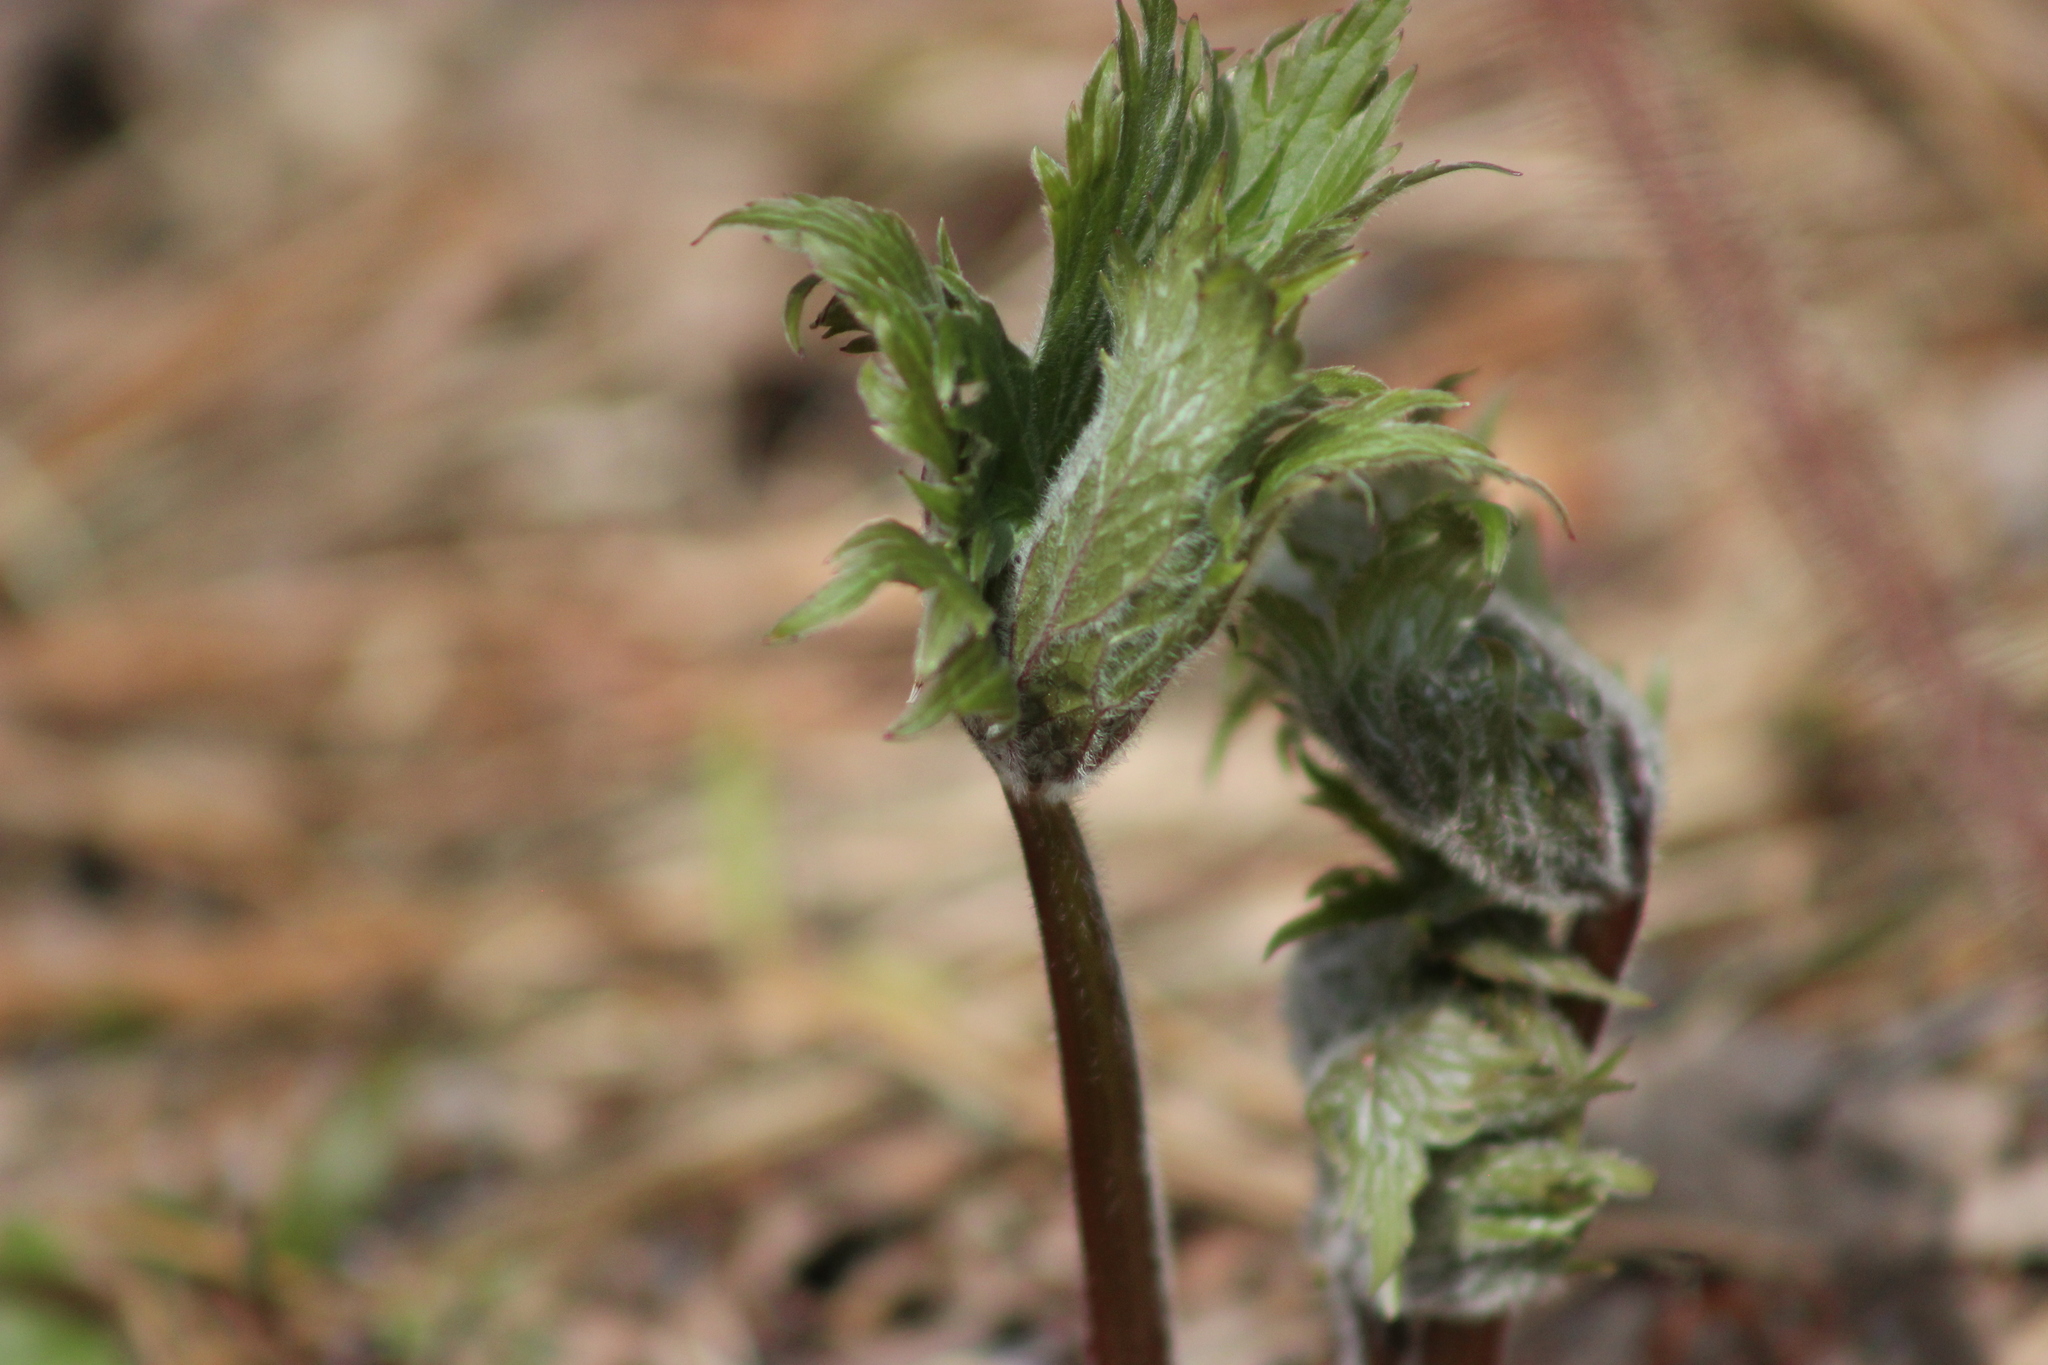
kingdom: Plantae
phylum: Tracheophyta
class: Magnoliopsida
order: Ranunculales
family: Ranunculaceae
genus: Aconitum
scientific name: Aconitum septentrionale
